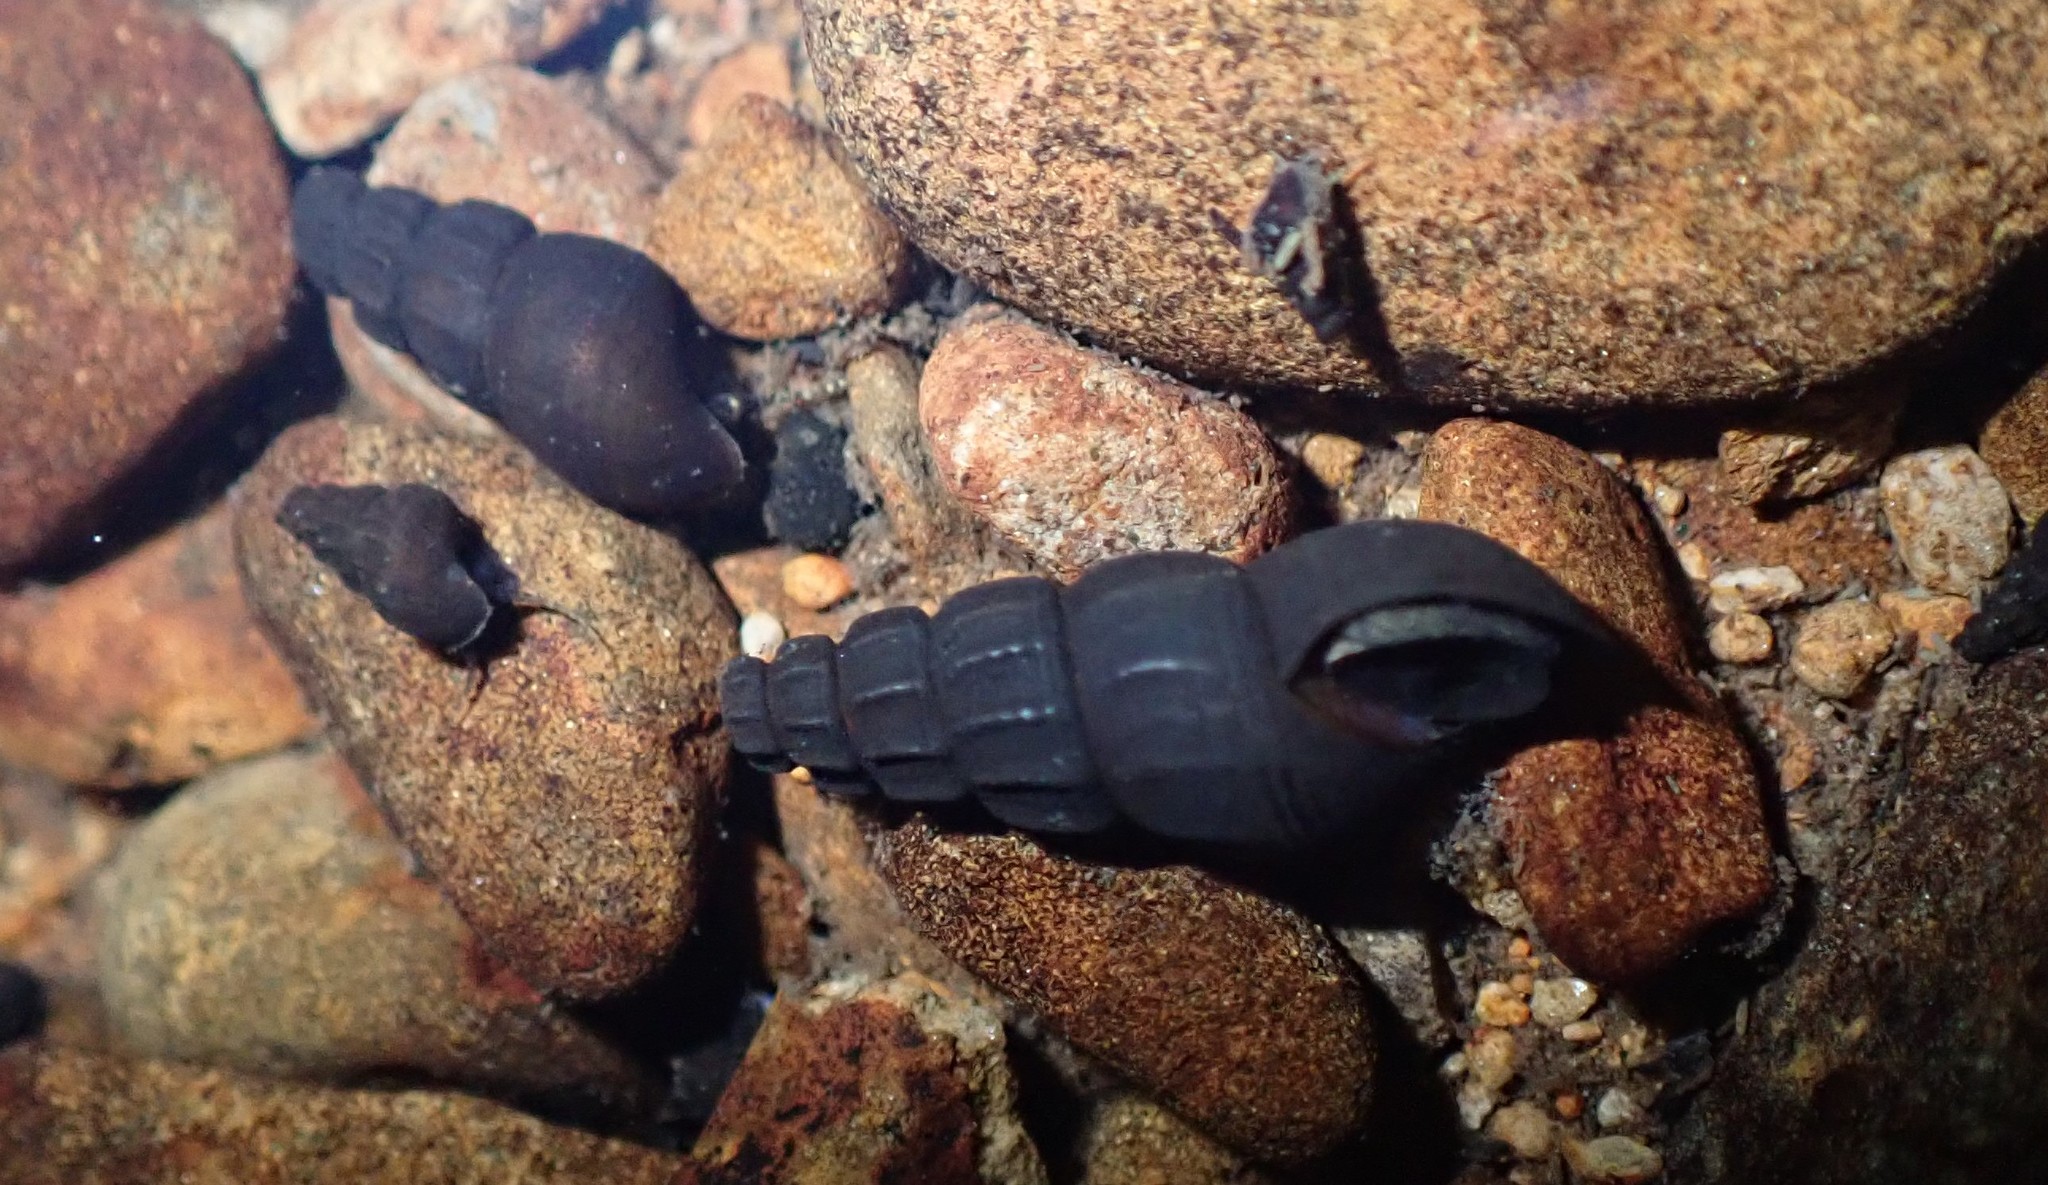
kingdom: Animalia
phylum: Mollusca
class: Gastropoda
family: Semisulcospiridae
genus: Juga
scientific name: Juga plicifera
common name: Pleated juga
